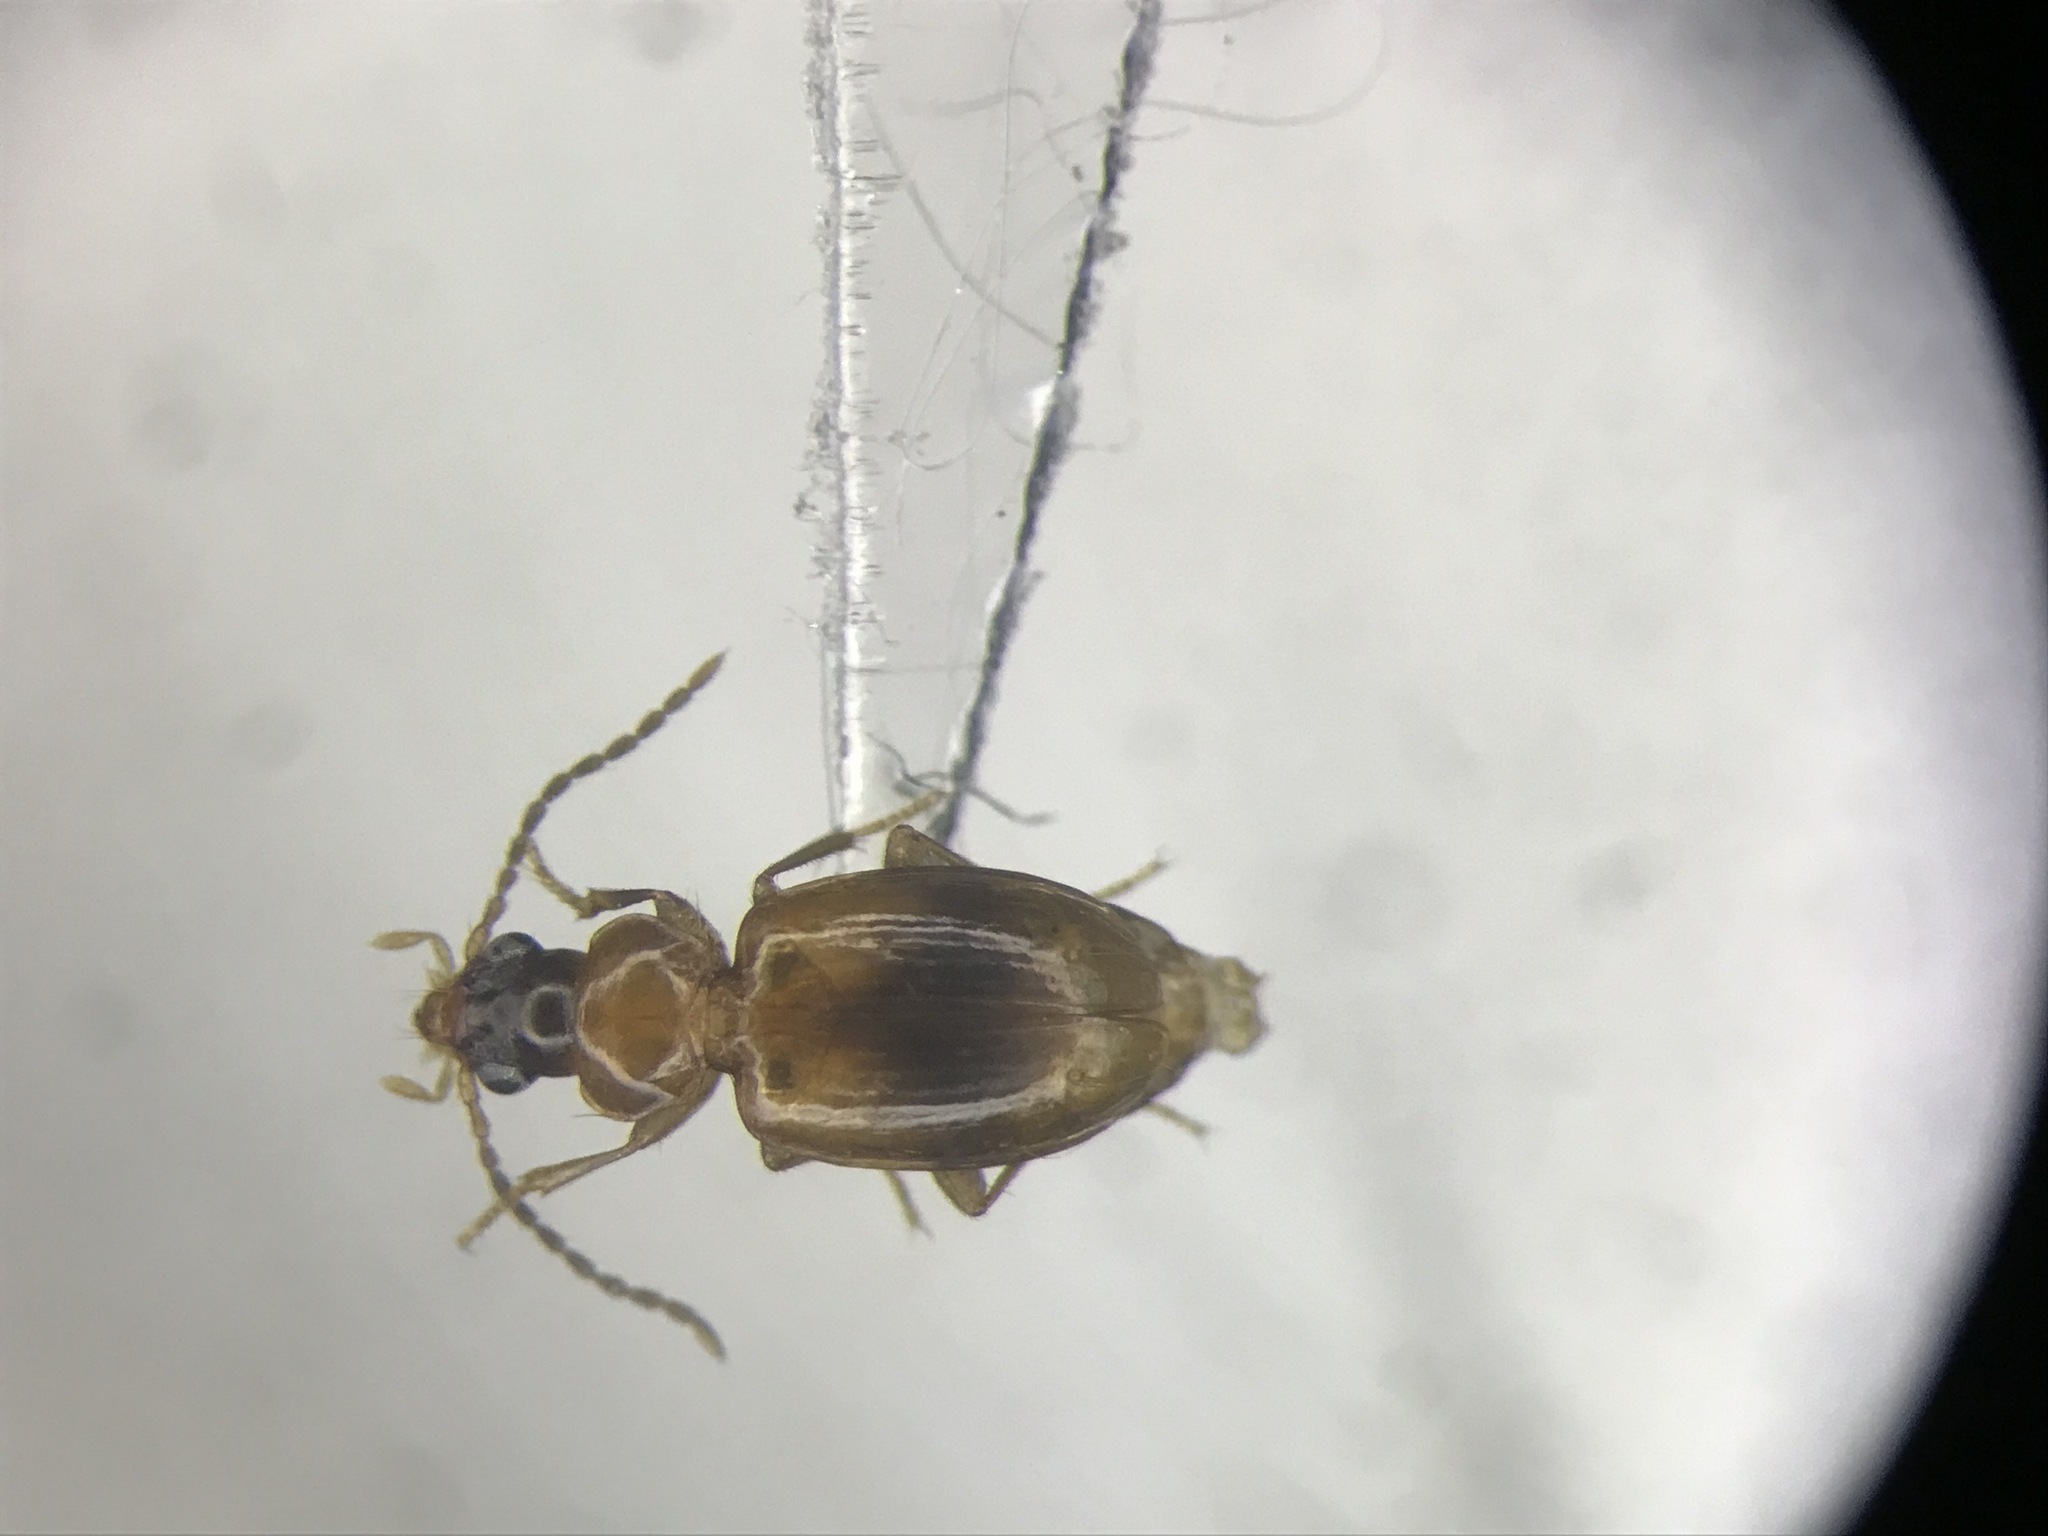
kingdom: Animalia
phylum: Arthropoda
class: Insecta
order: Coleoptera
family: Carabidae
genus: Tachys
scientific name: Tachys scitulus
